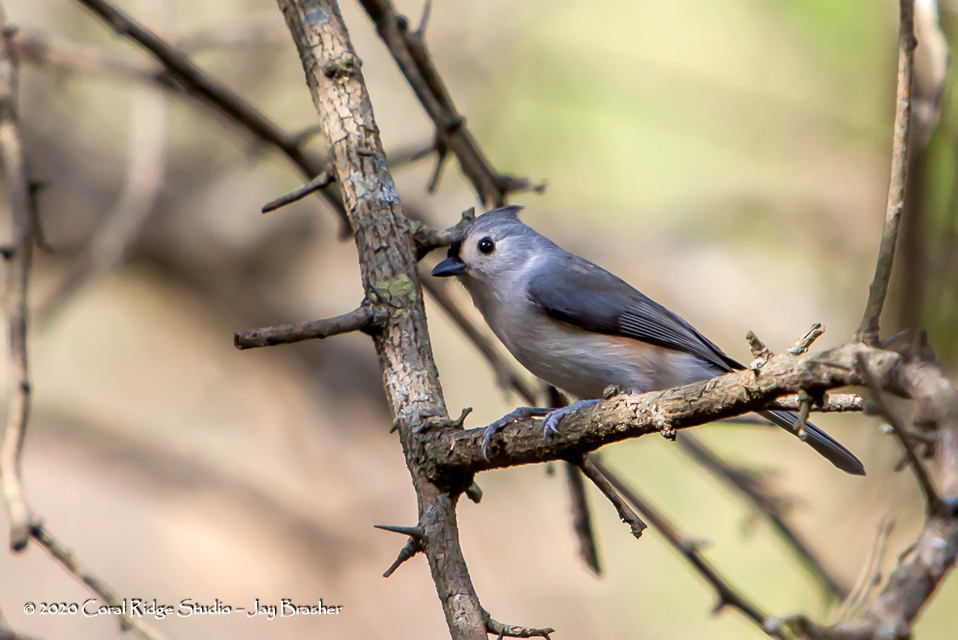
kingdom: Animalia
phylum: Chordata
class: Aves
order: Passeriformes
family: Paridae
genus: Baeolophus
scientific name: Baeolophus bicolor
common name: Tufted titmouse
